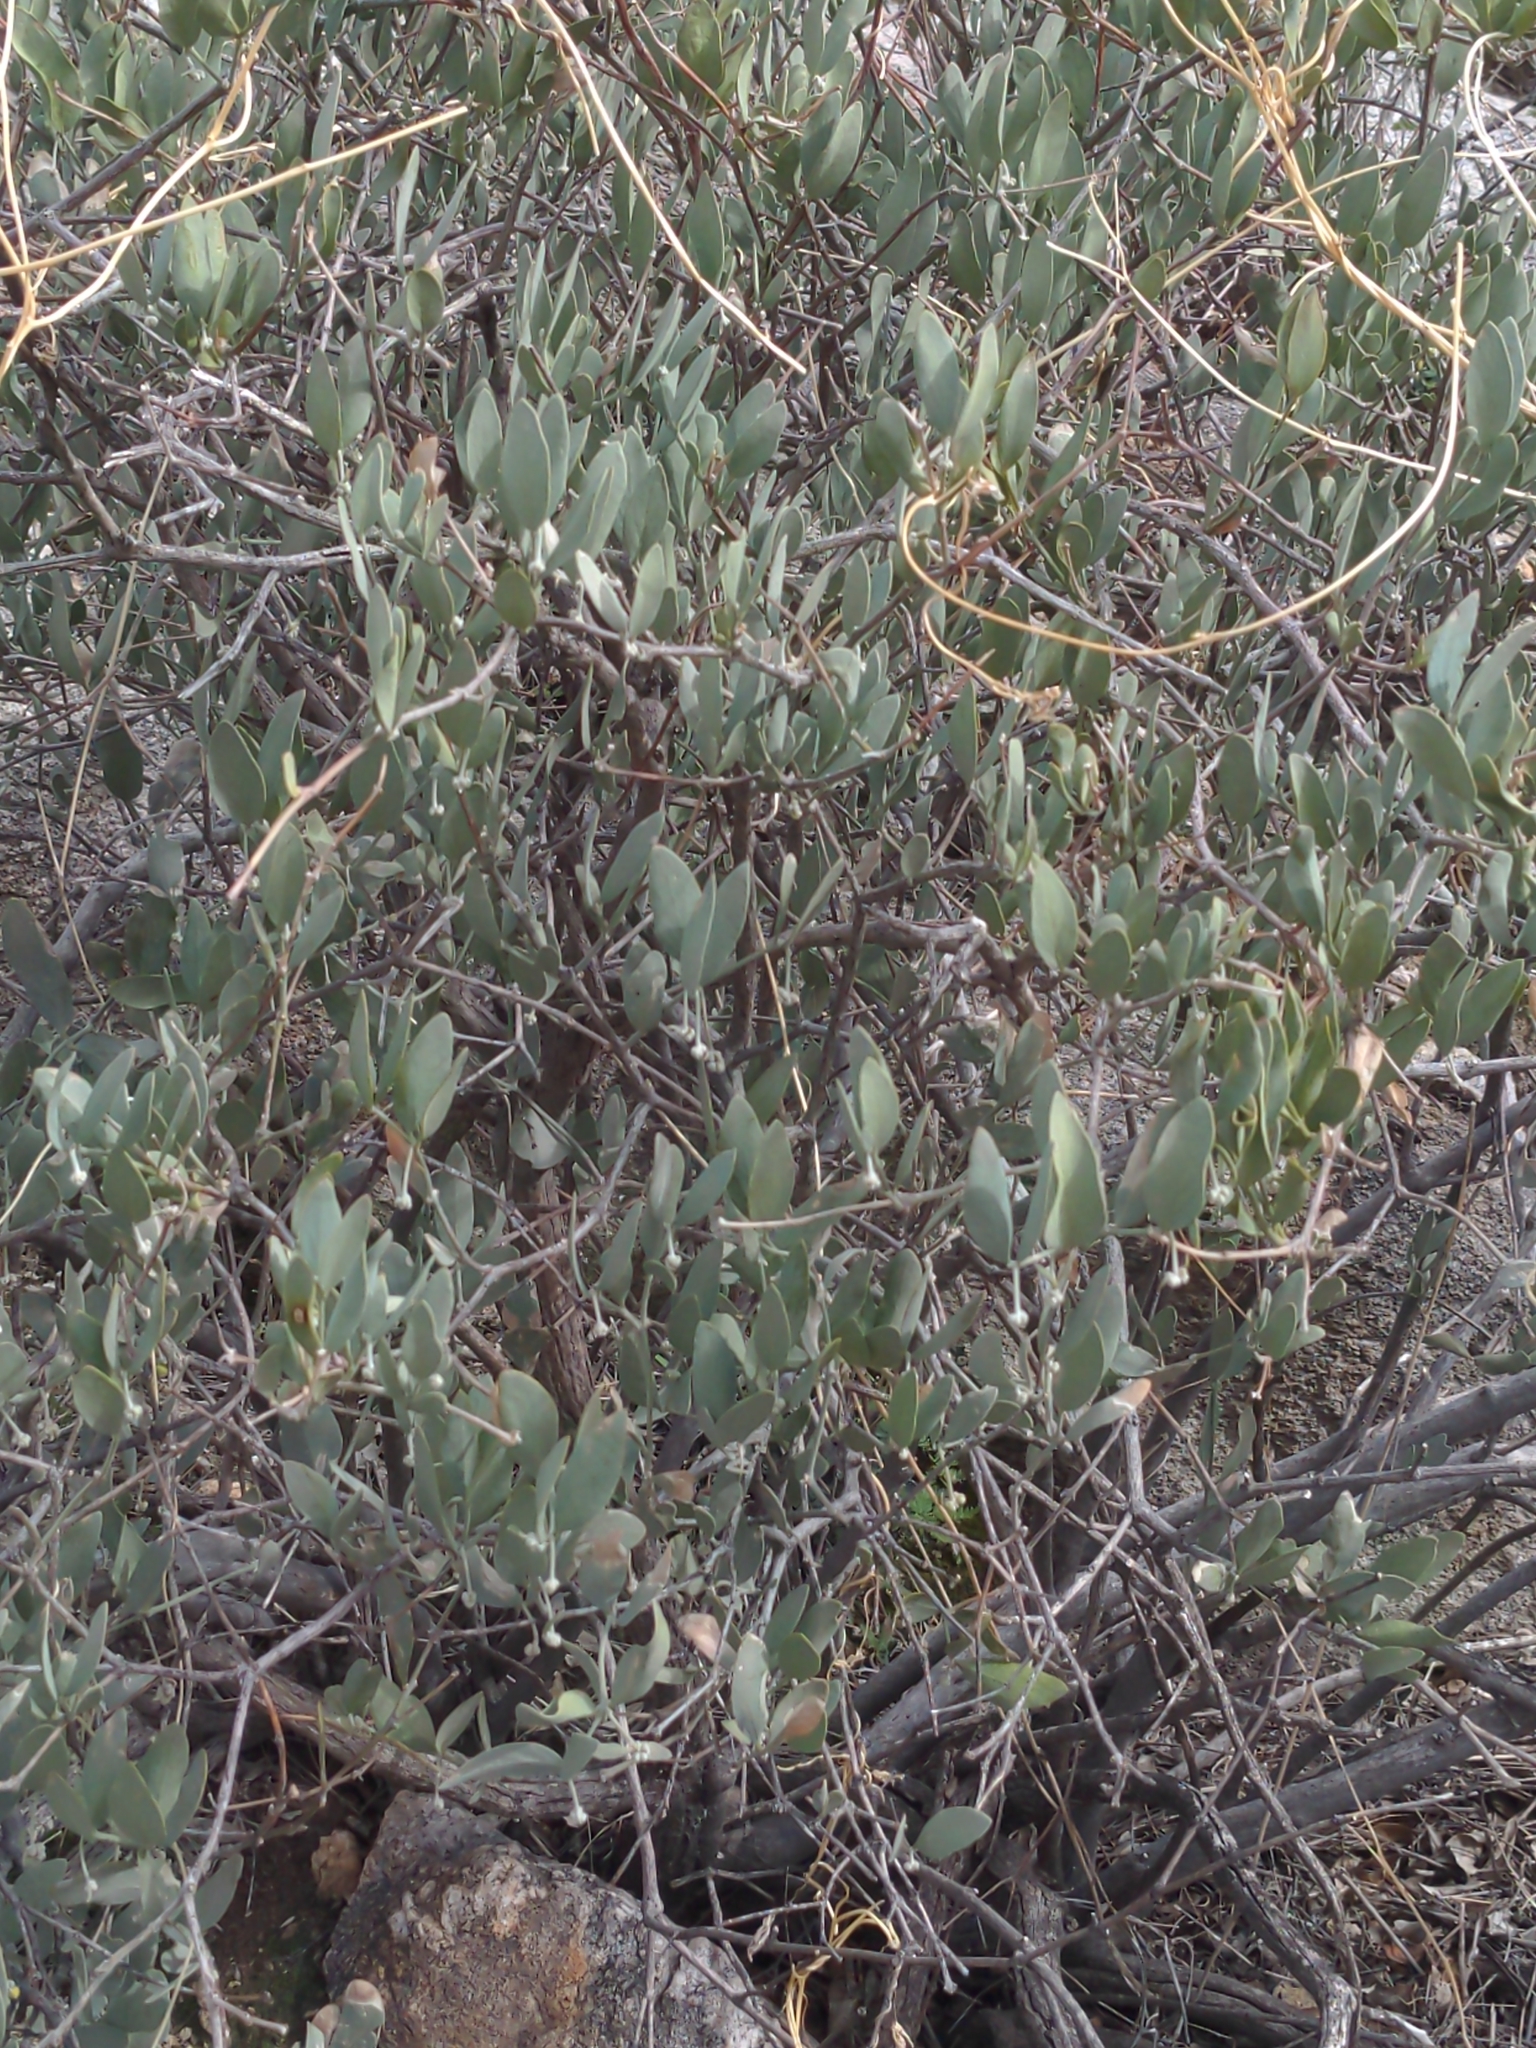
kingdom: Plantae
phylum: Tracheophyta
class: Magnoliopsida
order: Caryophyllales
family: Simmondsiaceae
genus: Simmondsia
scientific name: Simmondsia chinensis
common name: Jojoba
